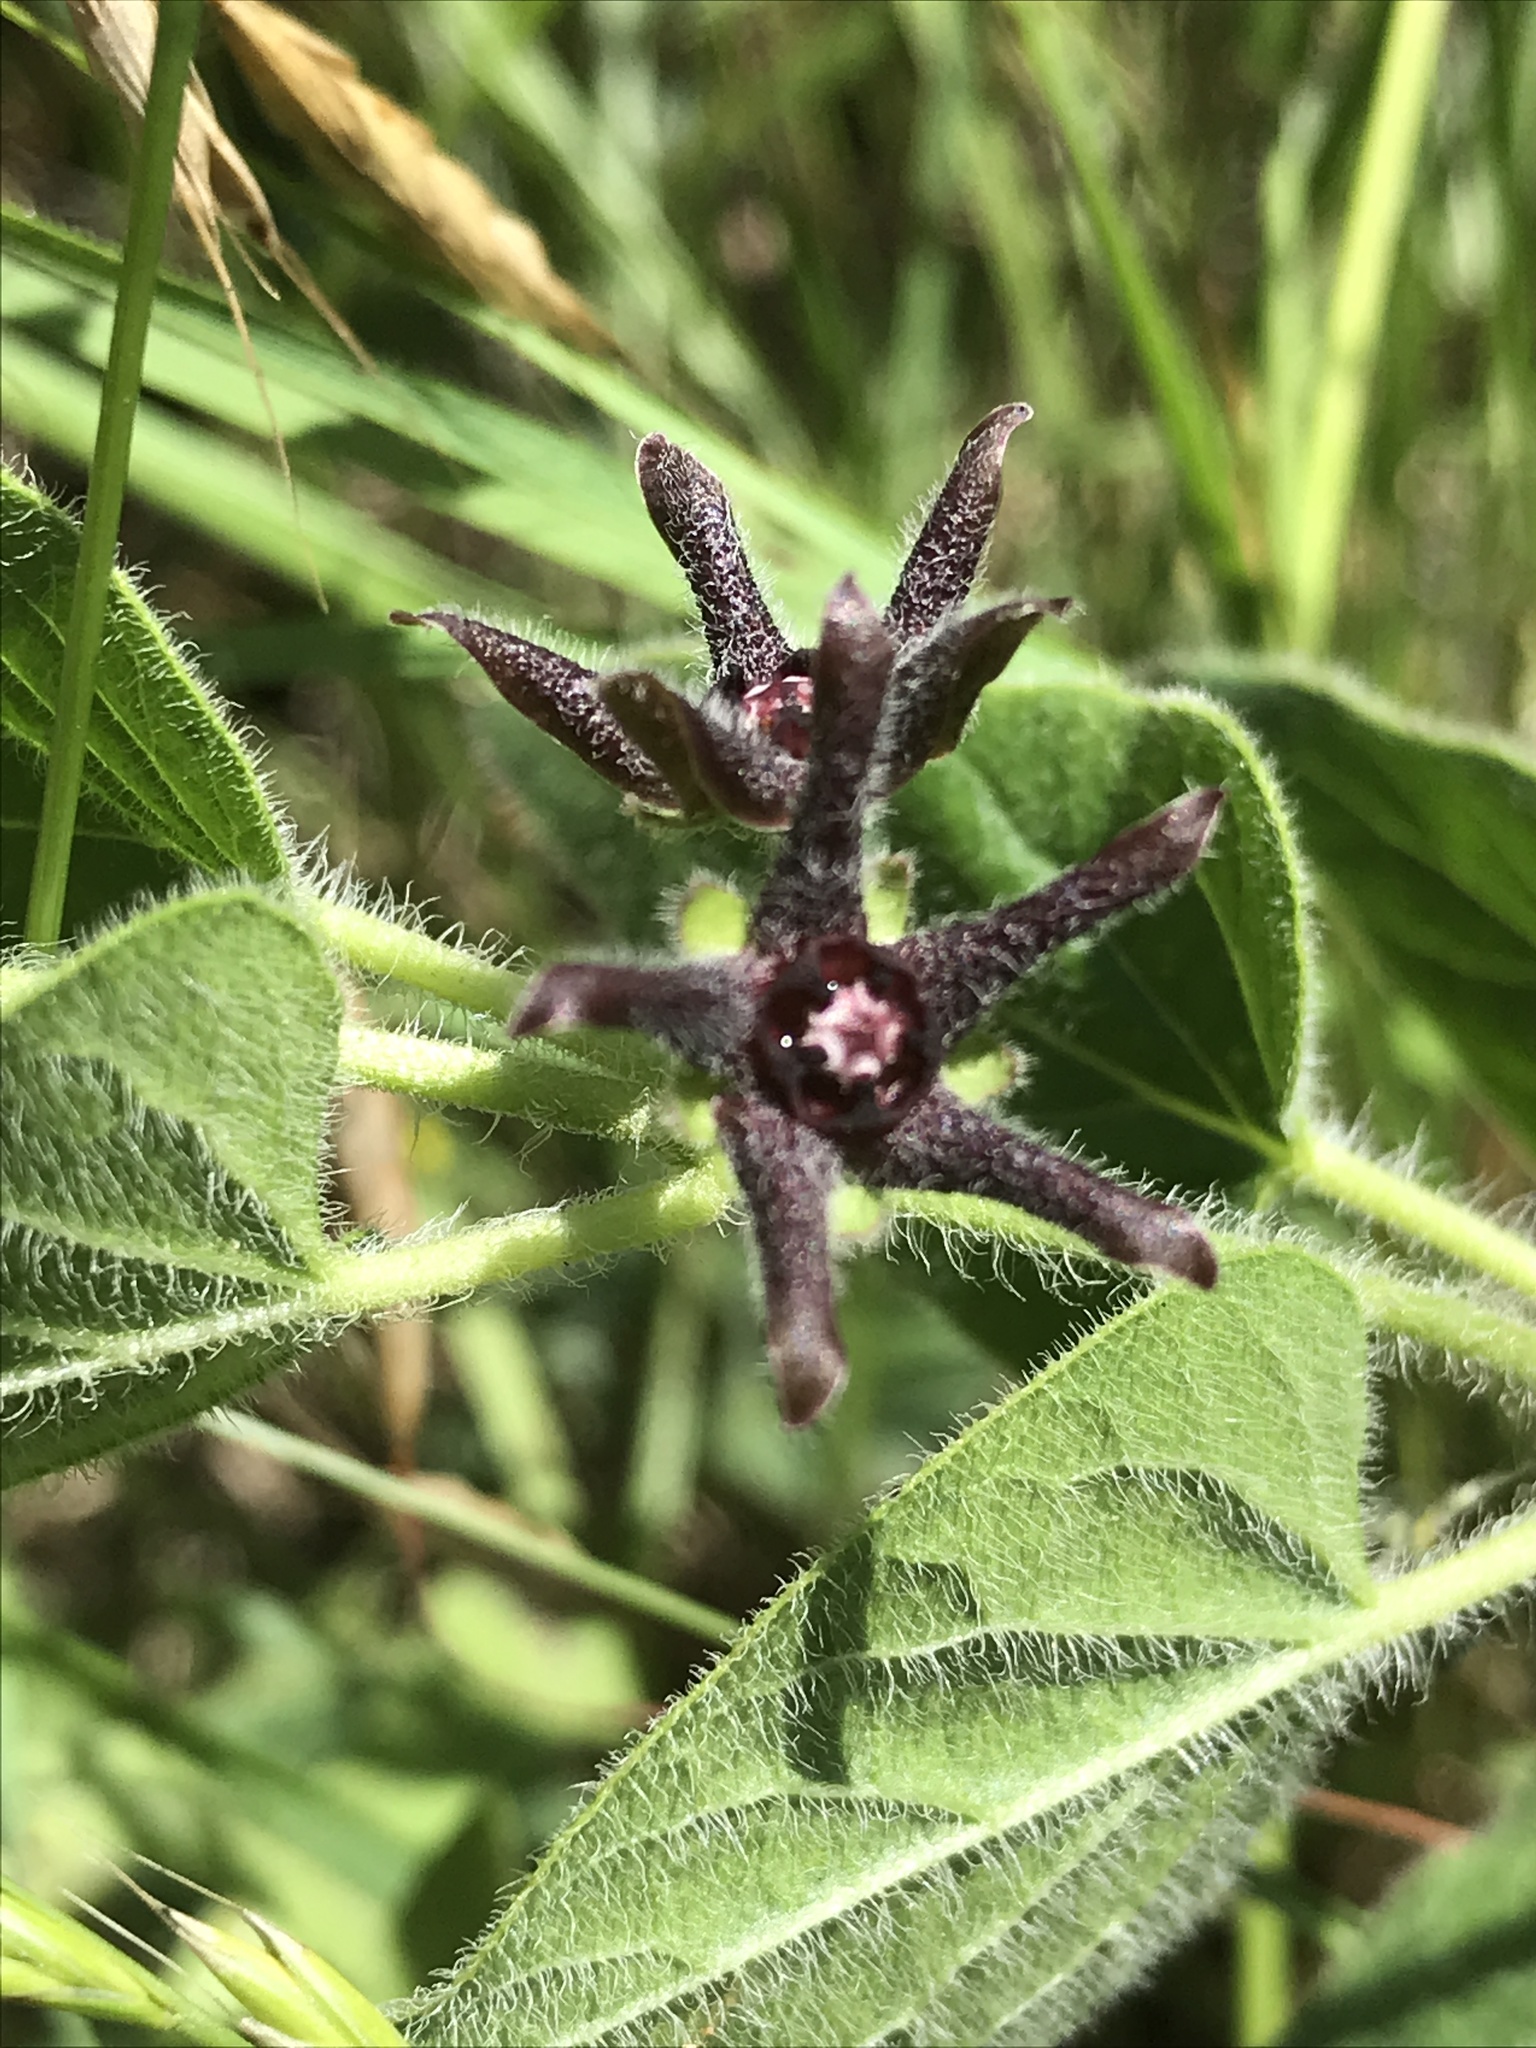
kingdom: Plantae
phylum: Tracheophyta
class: Magnoliopsida
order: Gentianales
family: Apocynaceae
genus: Chthamalia
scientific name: Chthamalia biflora
